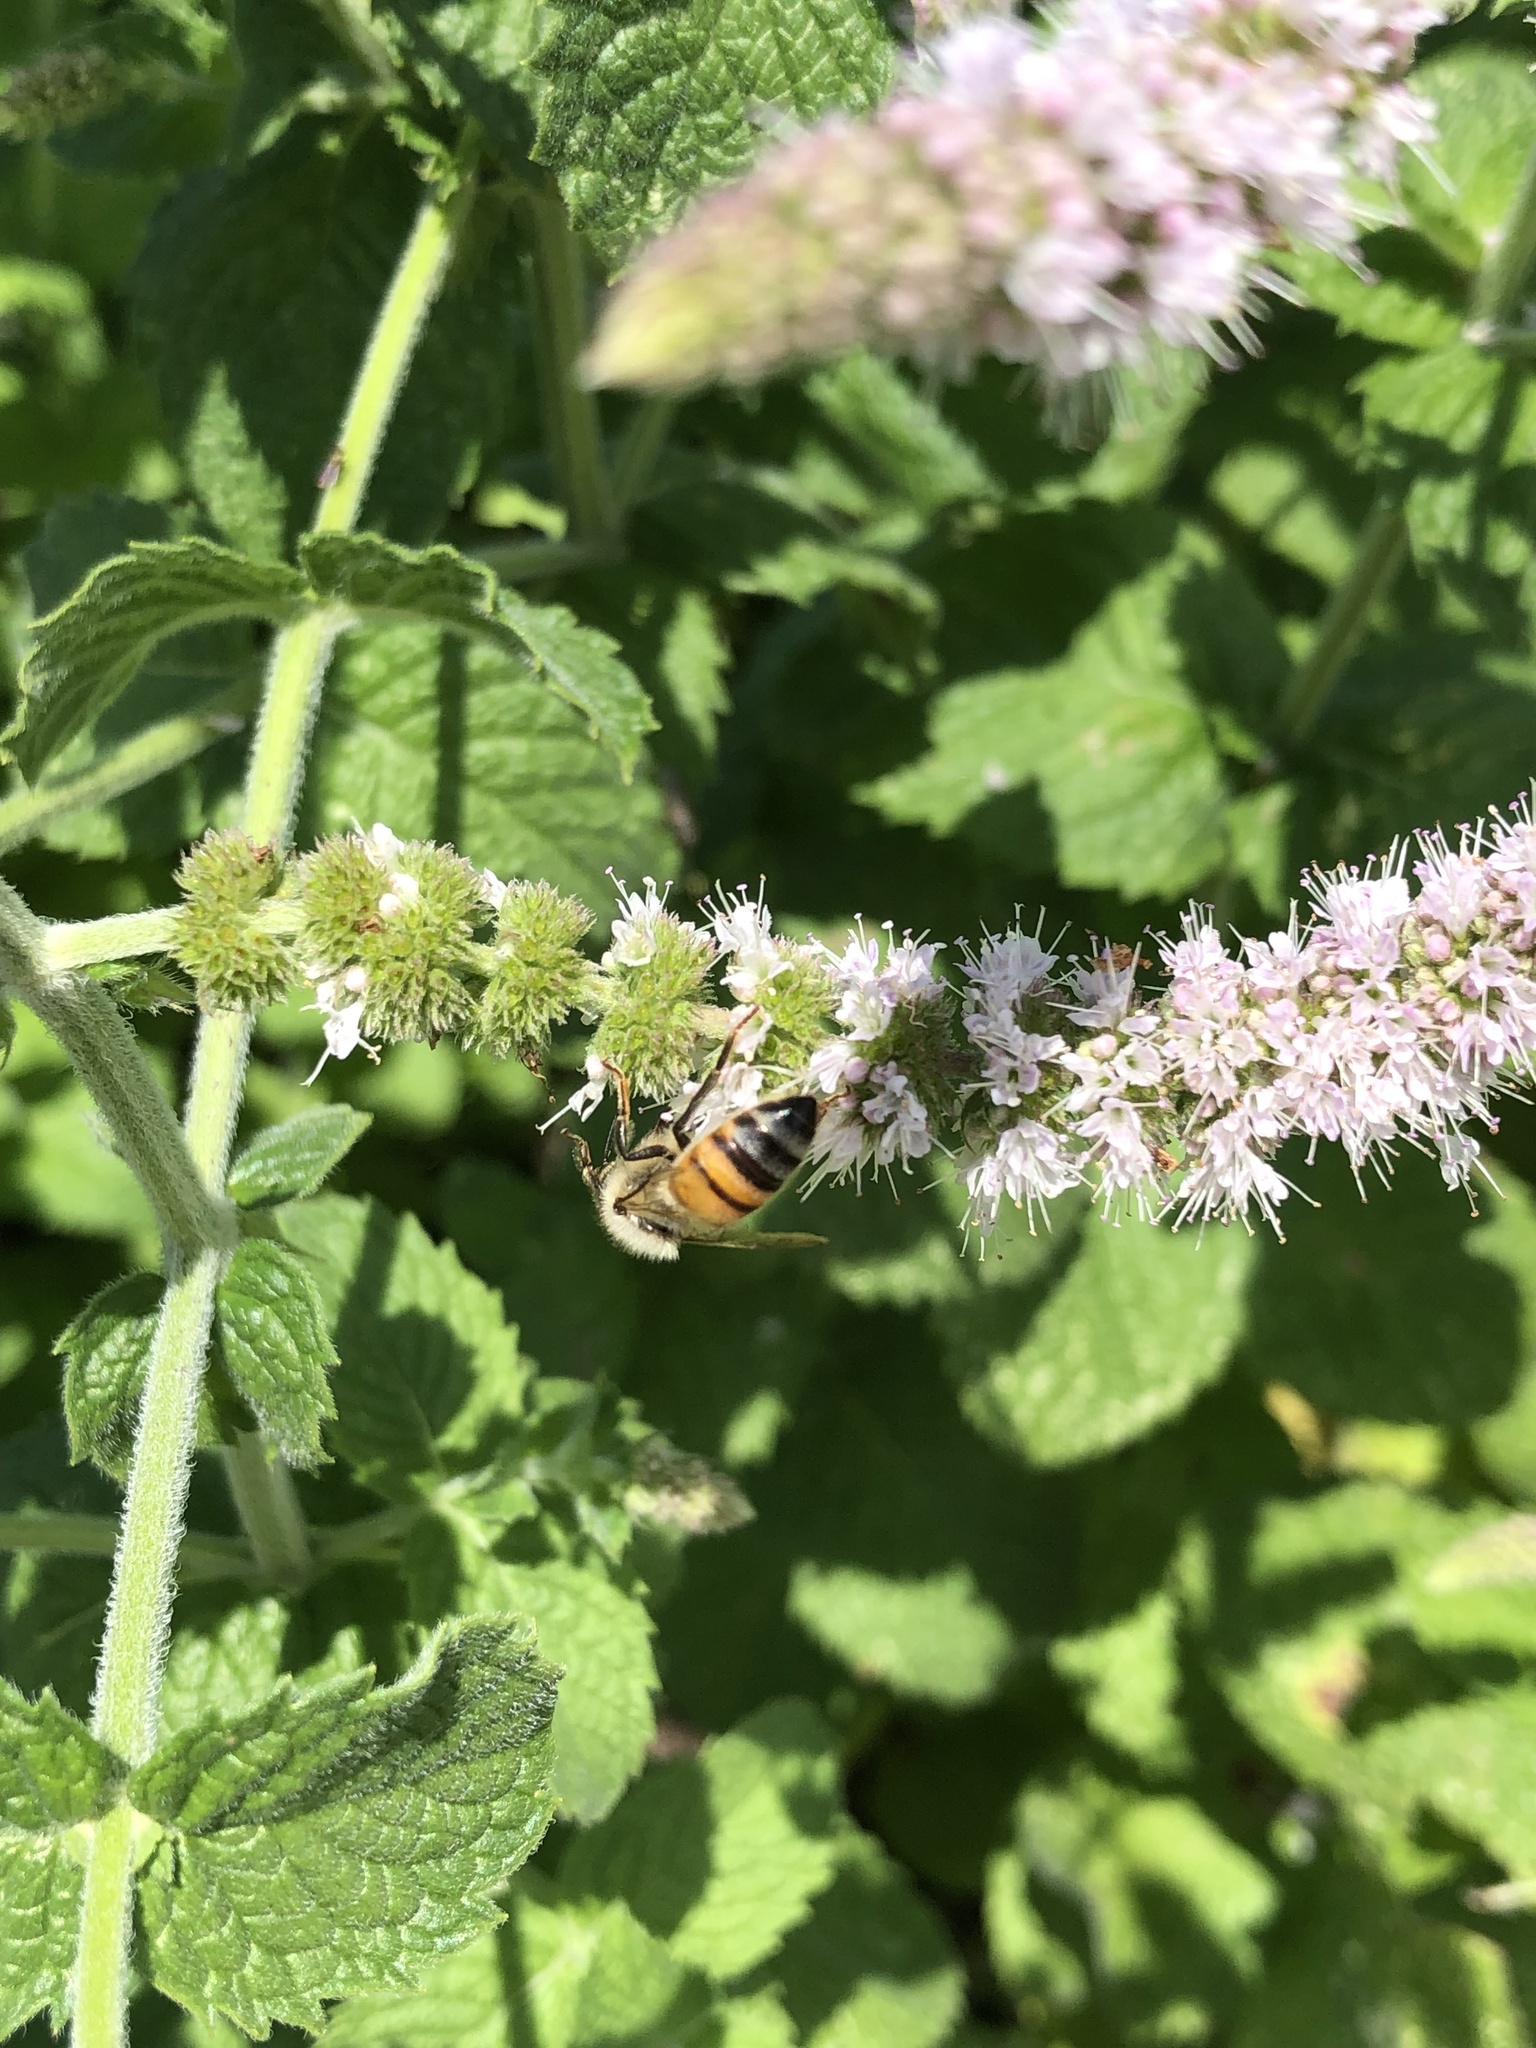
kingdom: Animalia
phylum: Arthropoda
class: Insecta
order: Hymenoptera
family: Apidae
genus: Apis
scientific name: Apis mellifera
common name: Honey bee
